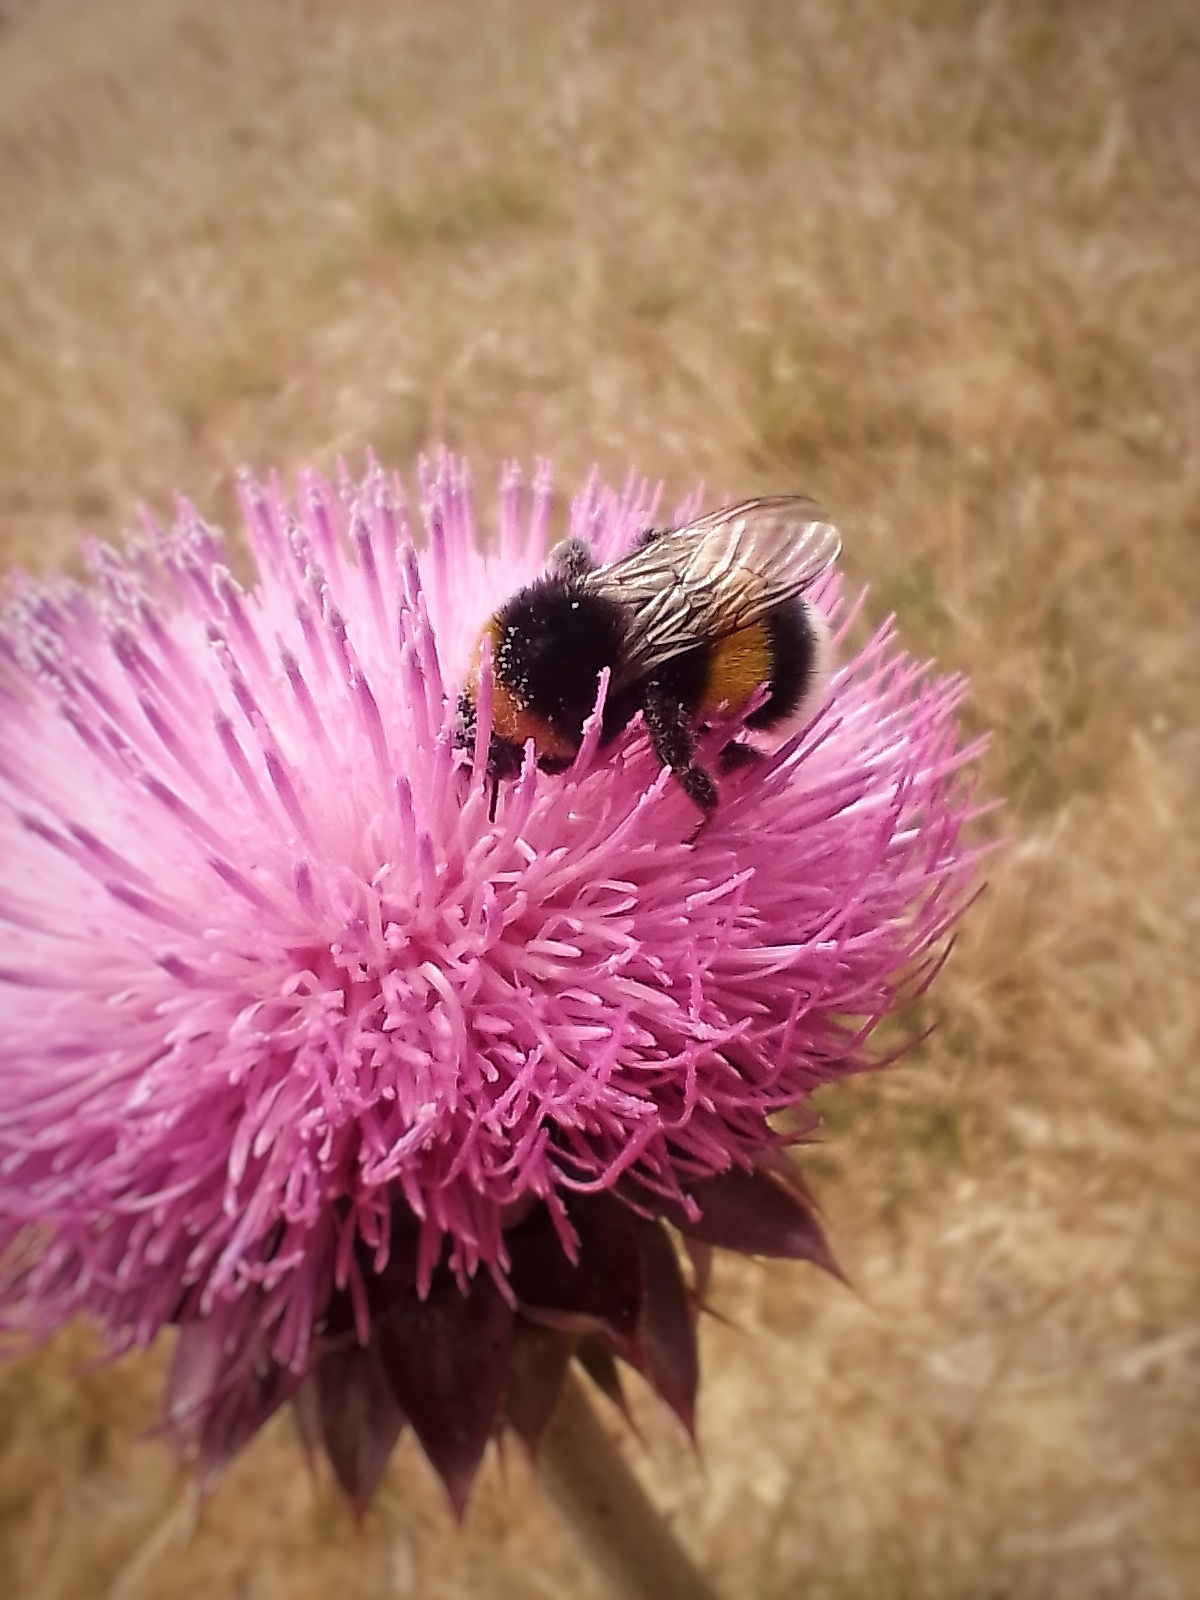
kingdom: Animalia
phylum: Arthropoda
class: Insecta
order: Hymenoptera
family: Apidae
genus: Bombus
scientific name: Bombus terrestris
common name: Buff-tailed bumblebee
